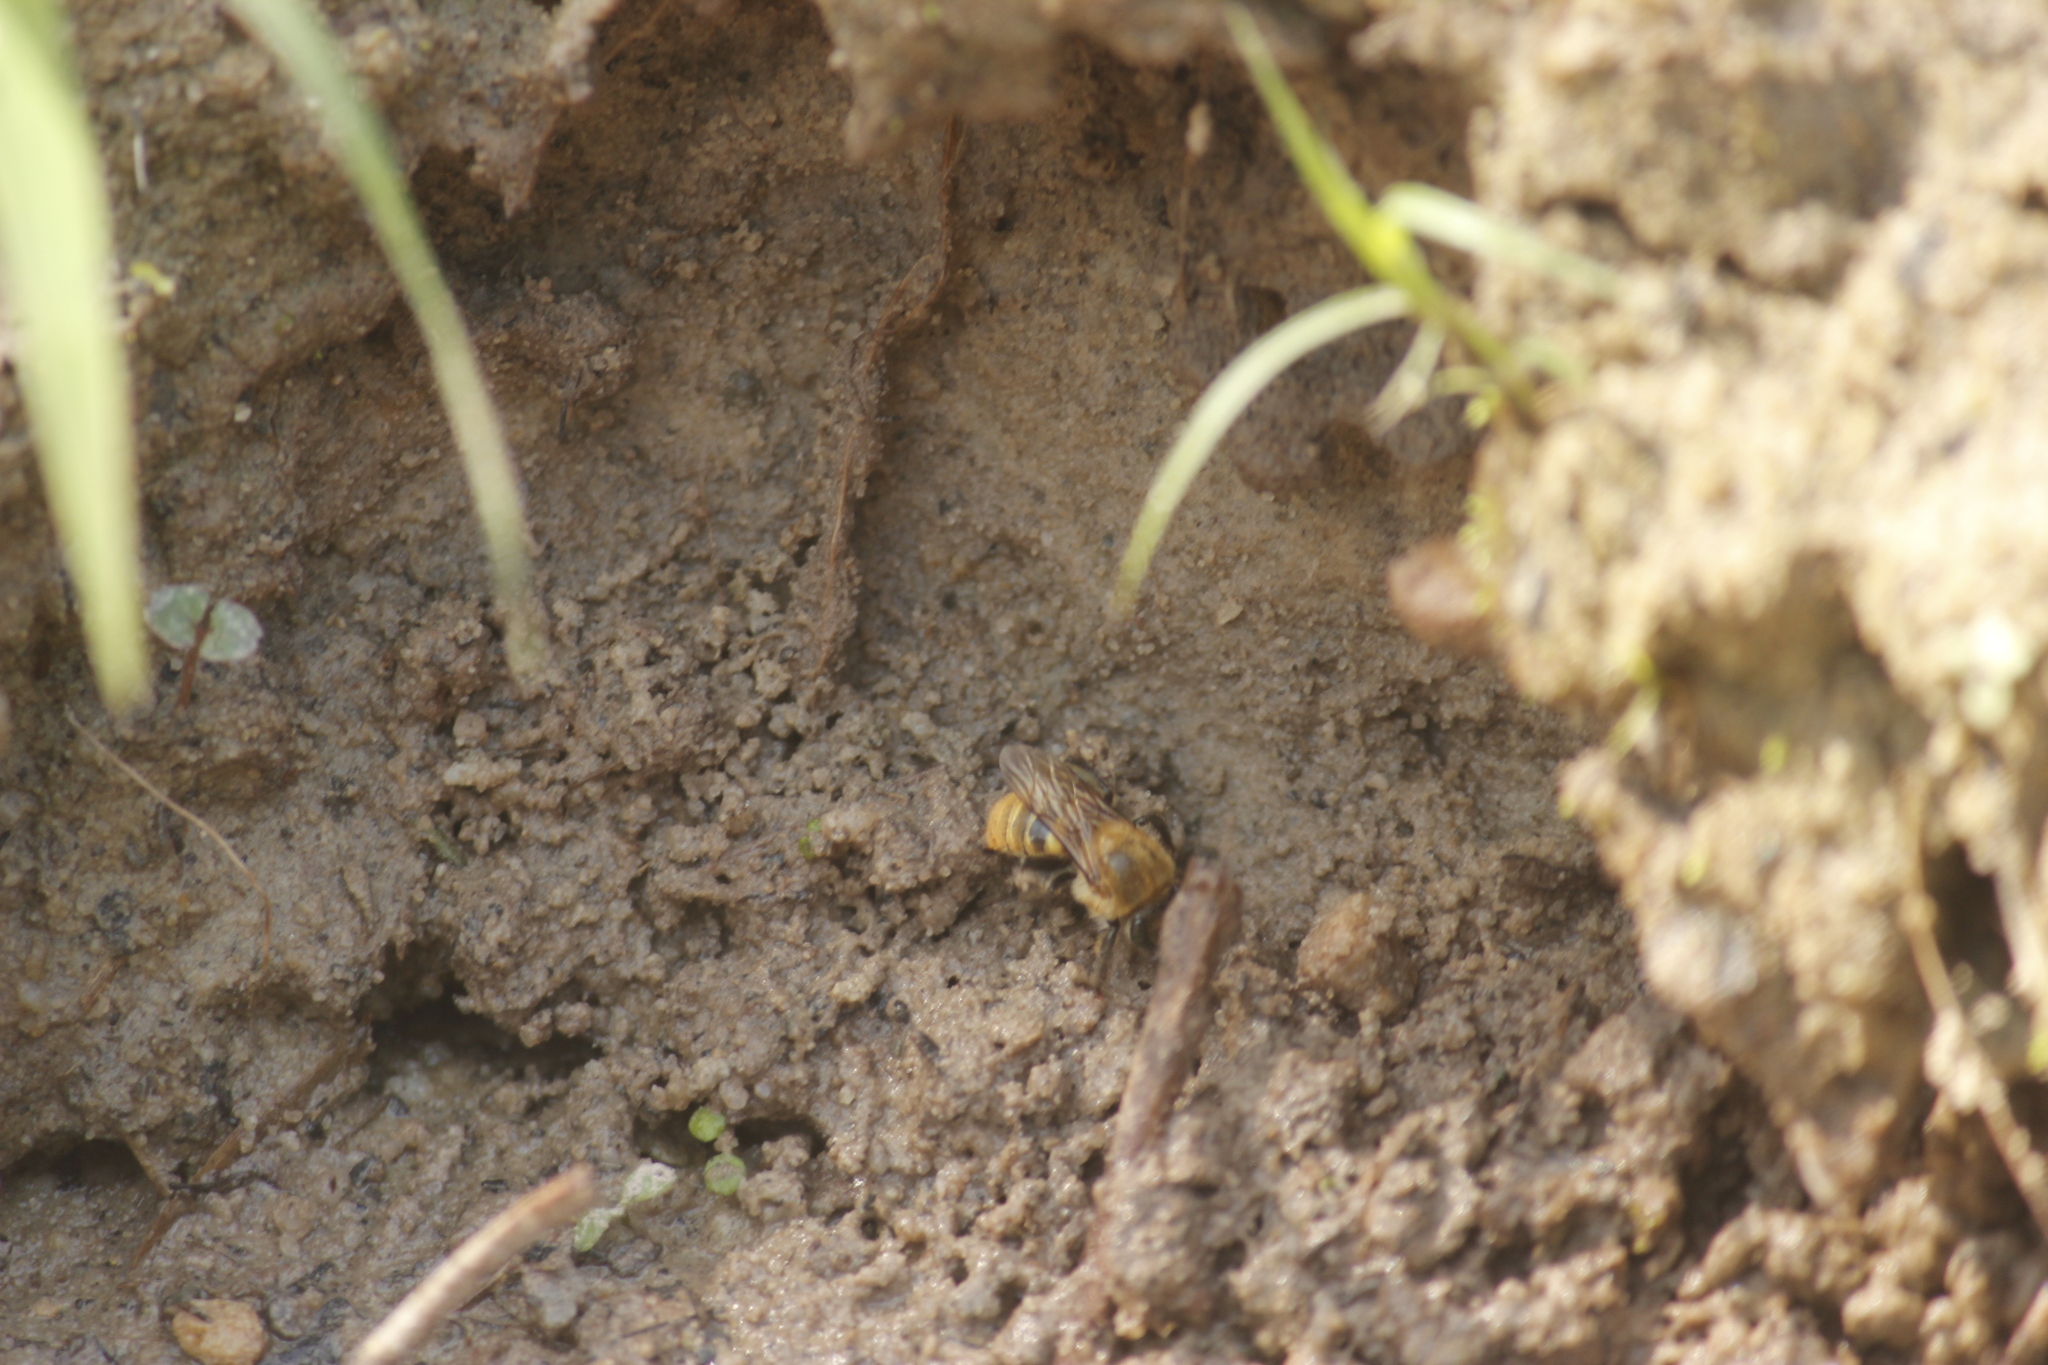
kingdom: Animalia
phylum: Arthropoda
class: Insecta
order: Hymenoptera
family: Apidae
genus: Melipona
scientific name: Melipona eburnea
